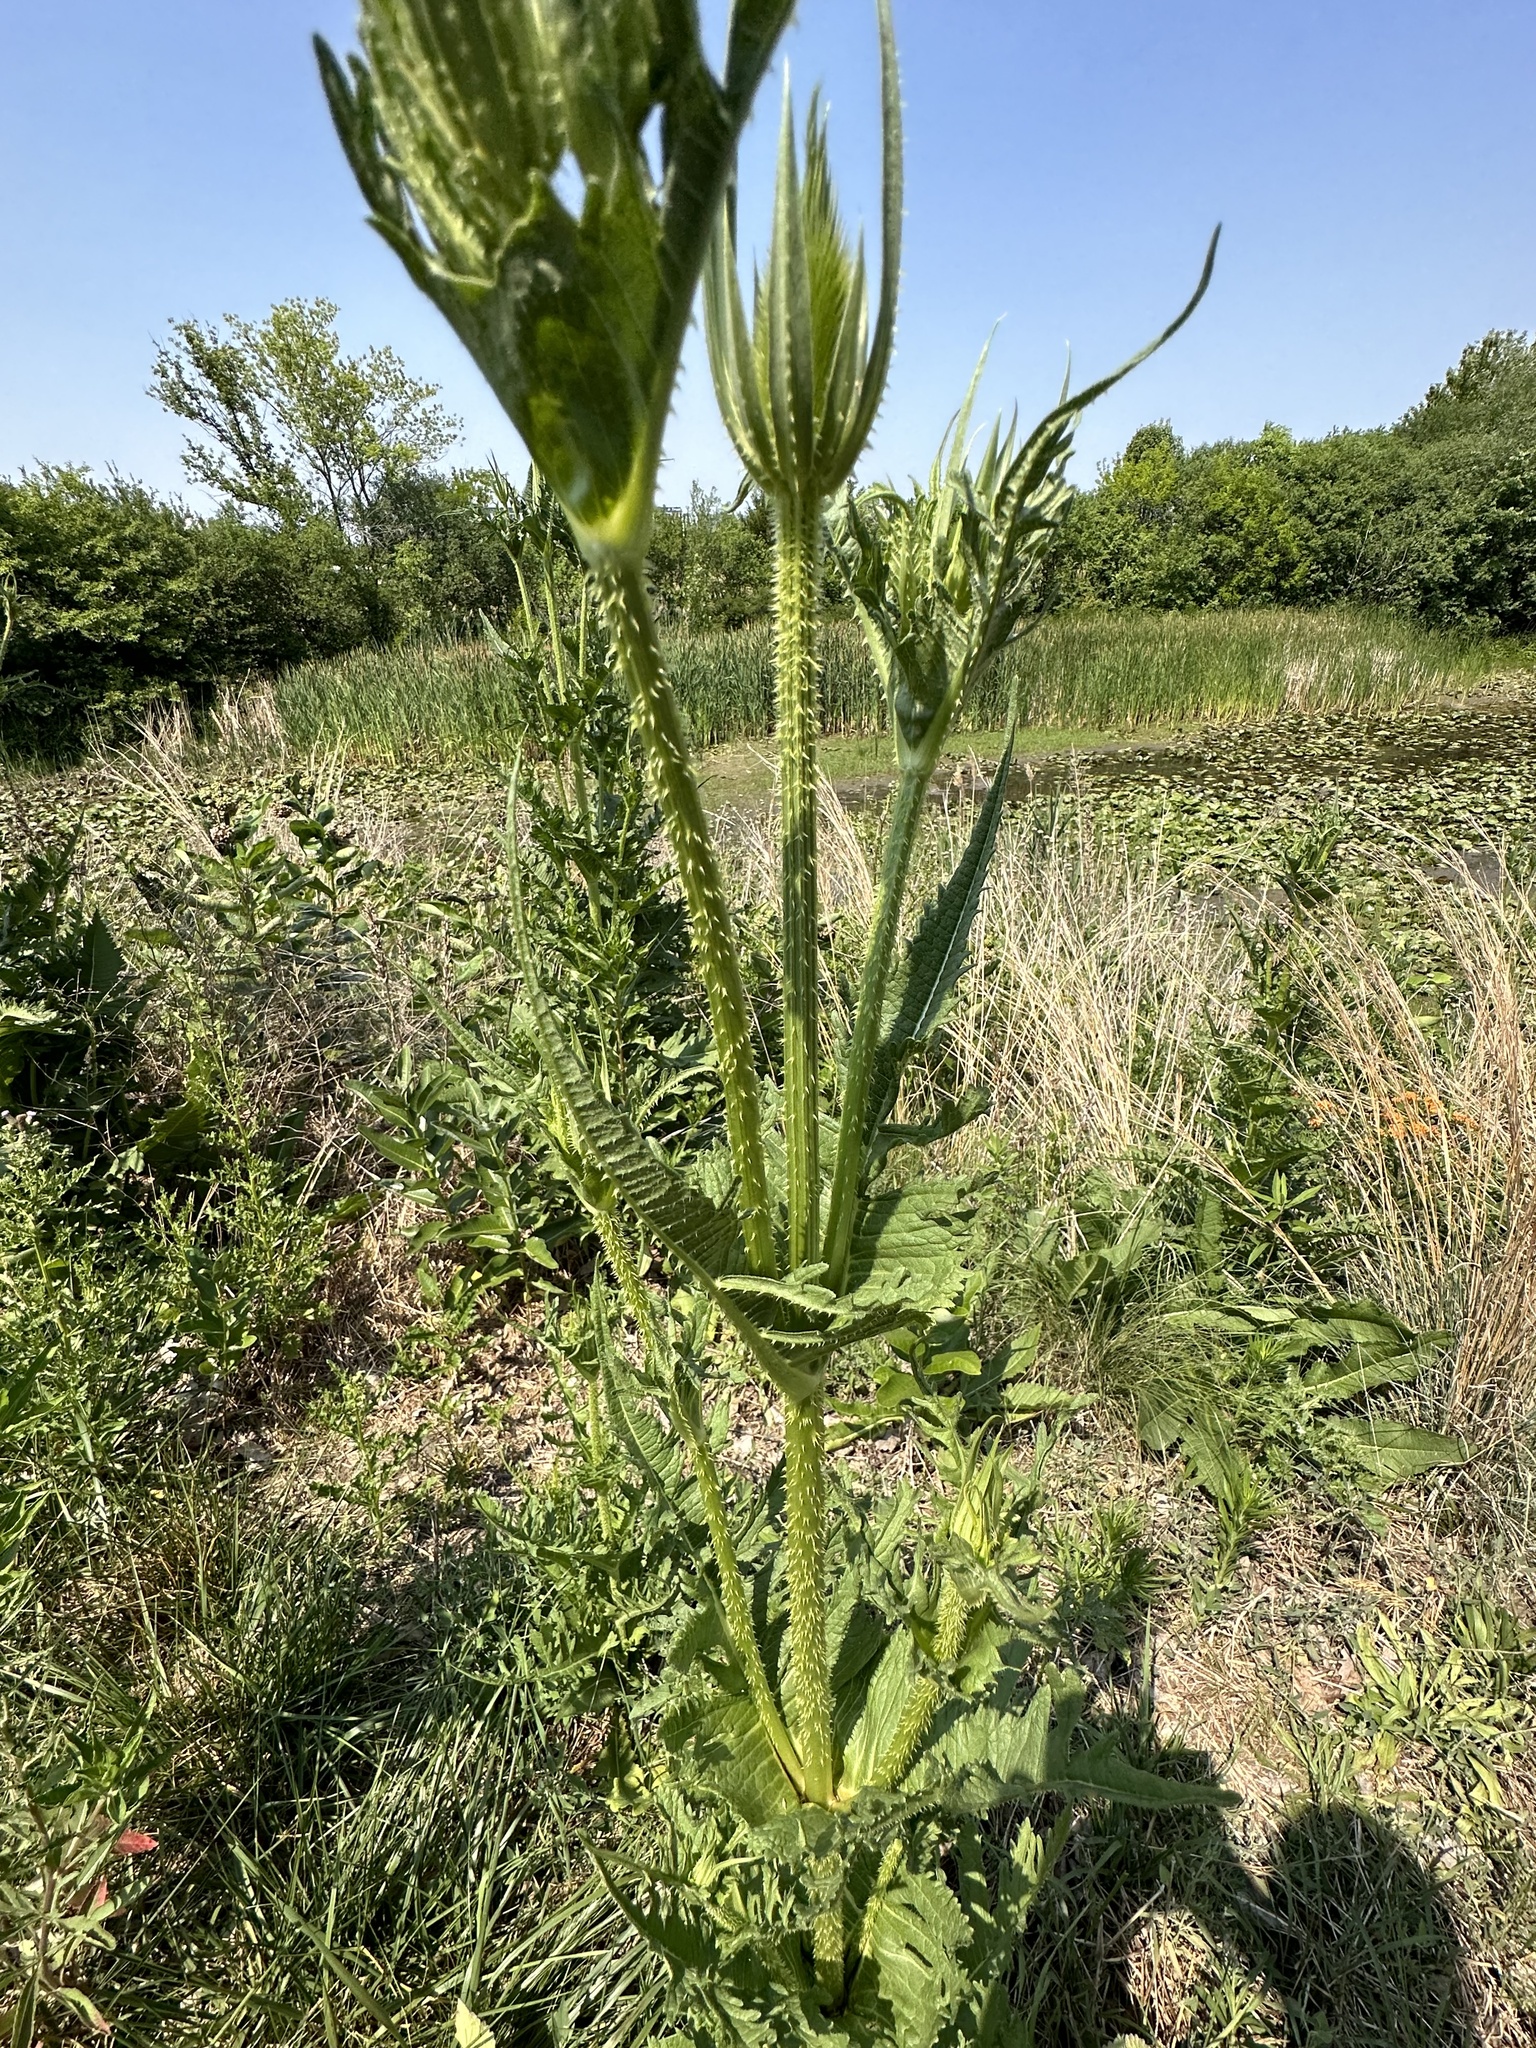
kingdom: Plantae
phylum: Tracheophyta
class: Magnoliopsida
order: Dipsacales
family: Caprifoliaceae
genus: Dipsacus
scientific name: Dipsacus laciniatus
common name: Cut-leaved teasel
